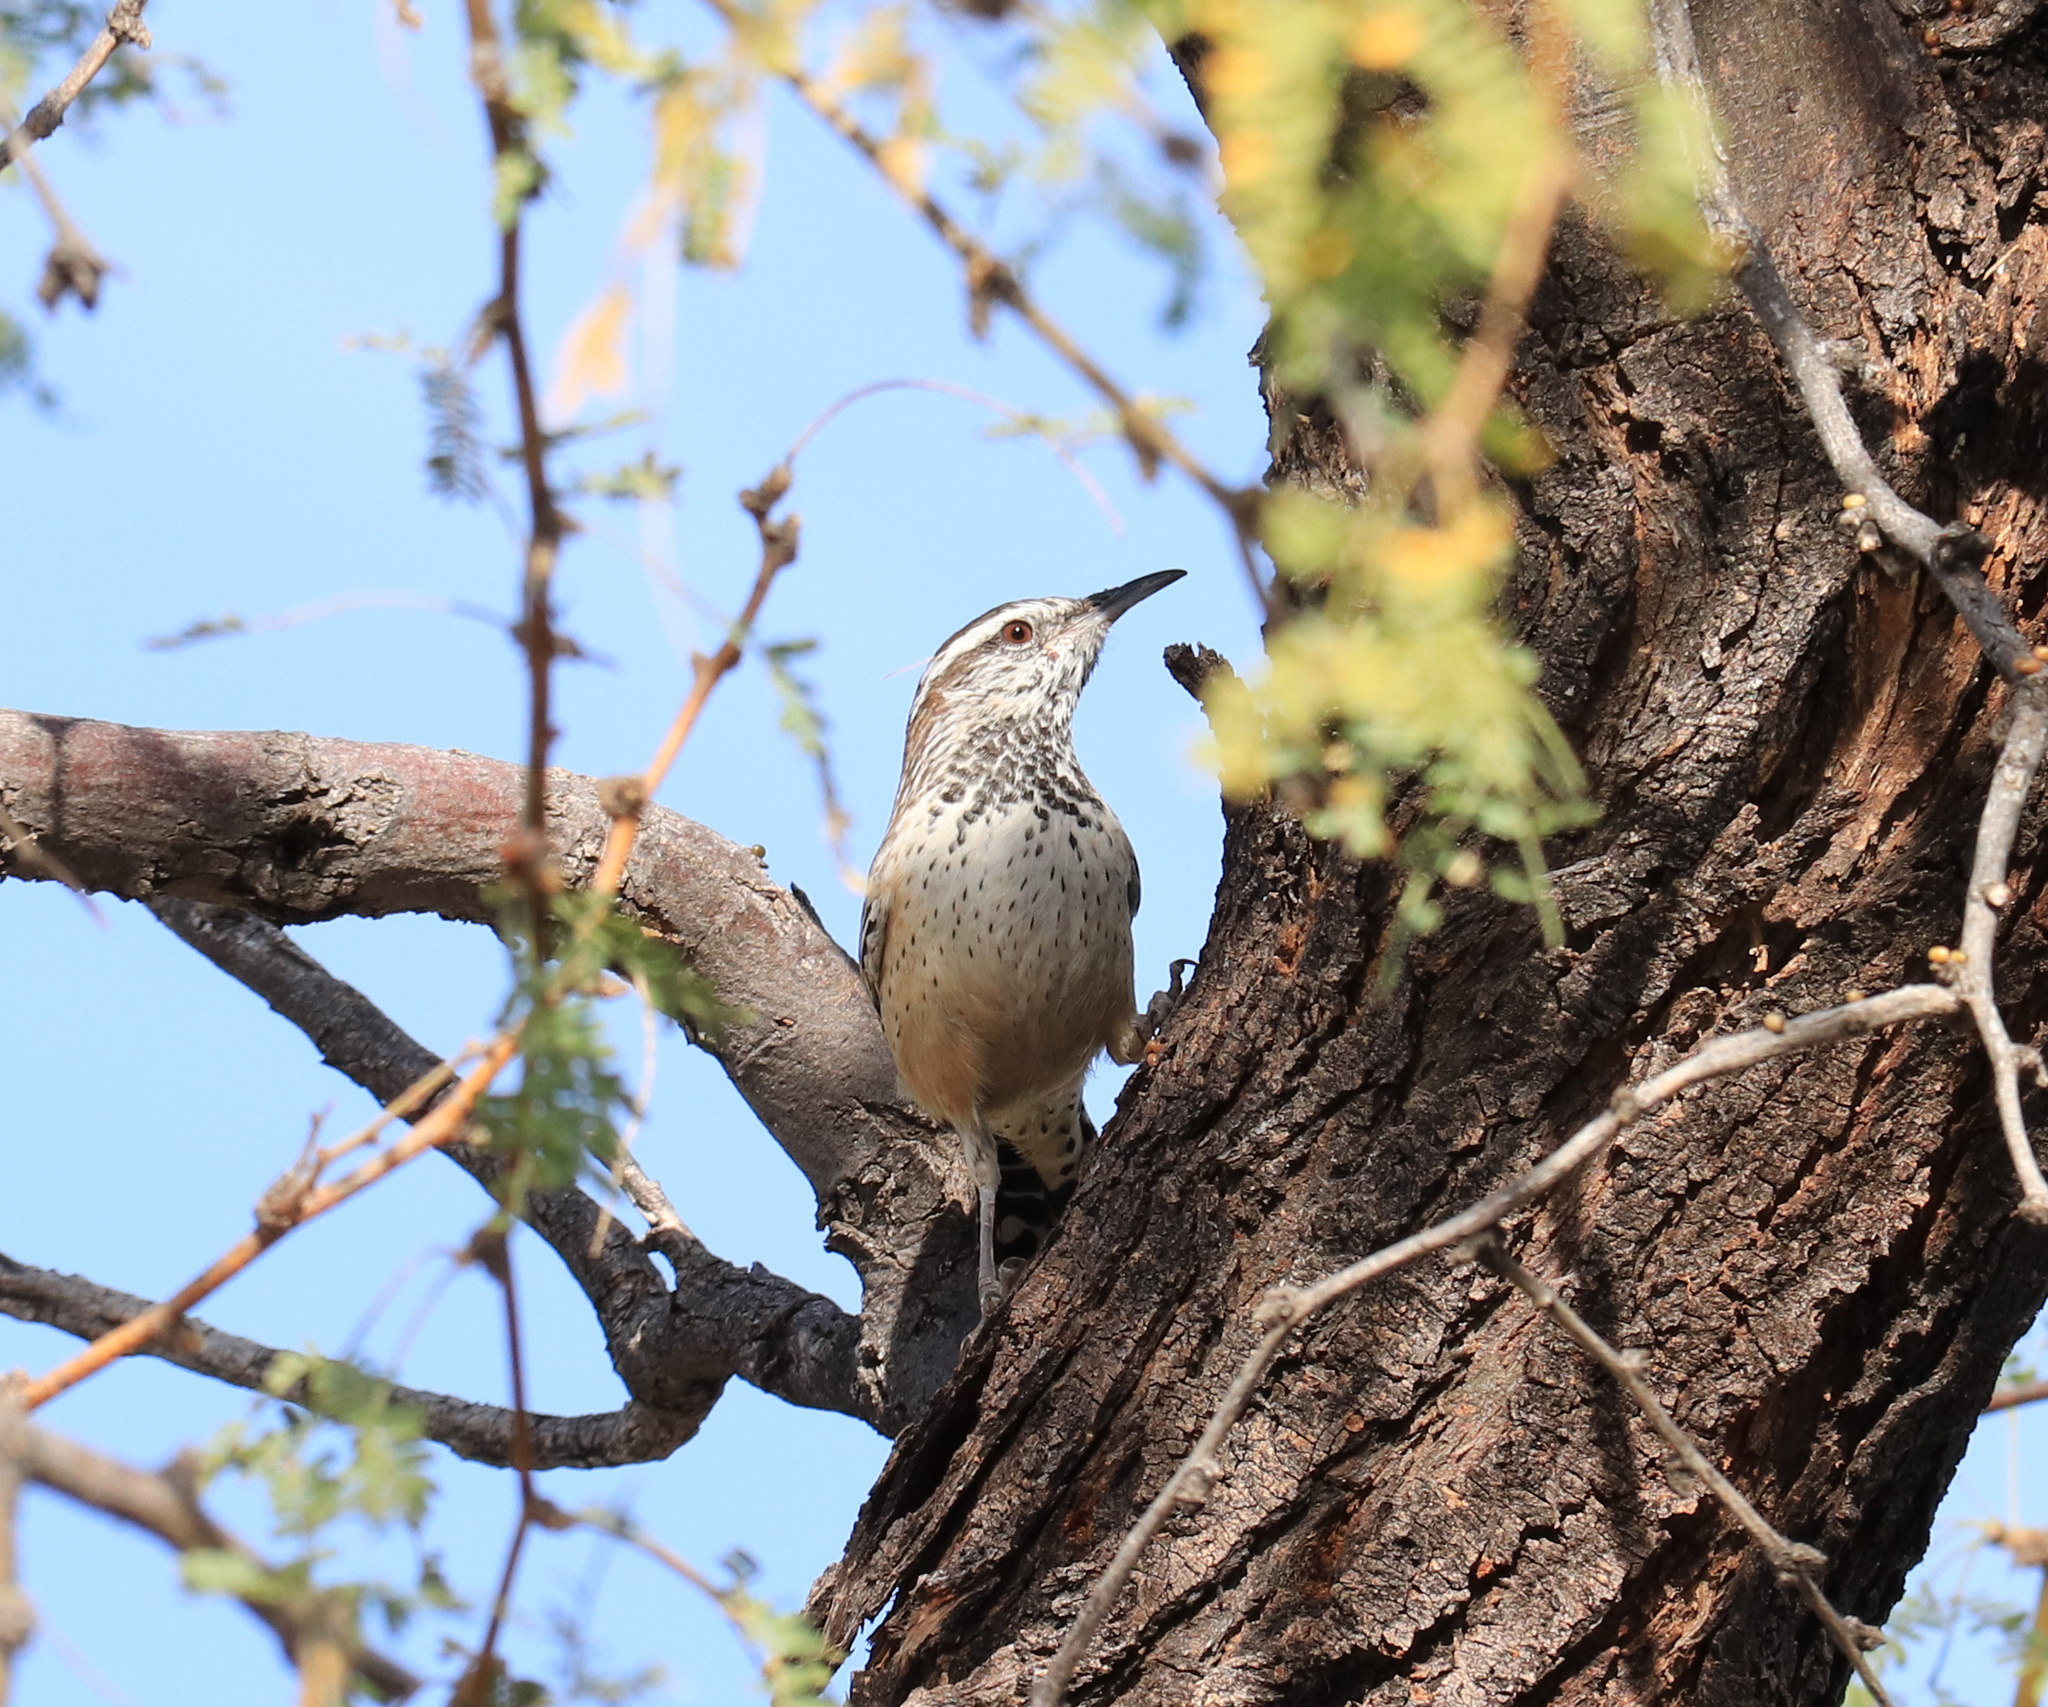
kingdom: Animalia
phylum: Chordata
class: Aves
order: Passeriformes
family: Troglodytidae
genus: Campylorhynchus
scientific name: Campylorhynchus brunneicapillus
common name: Cactus wren
